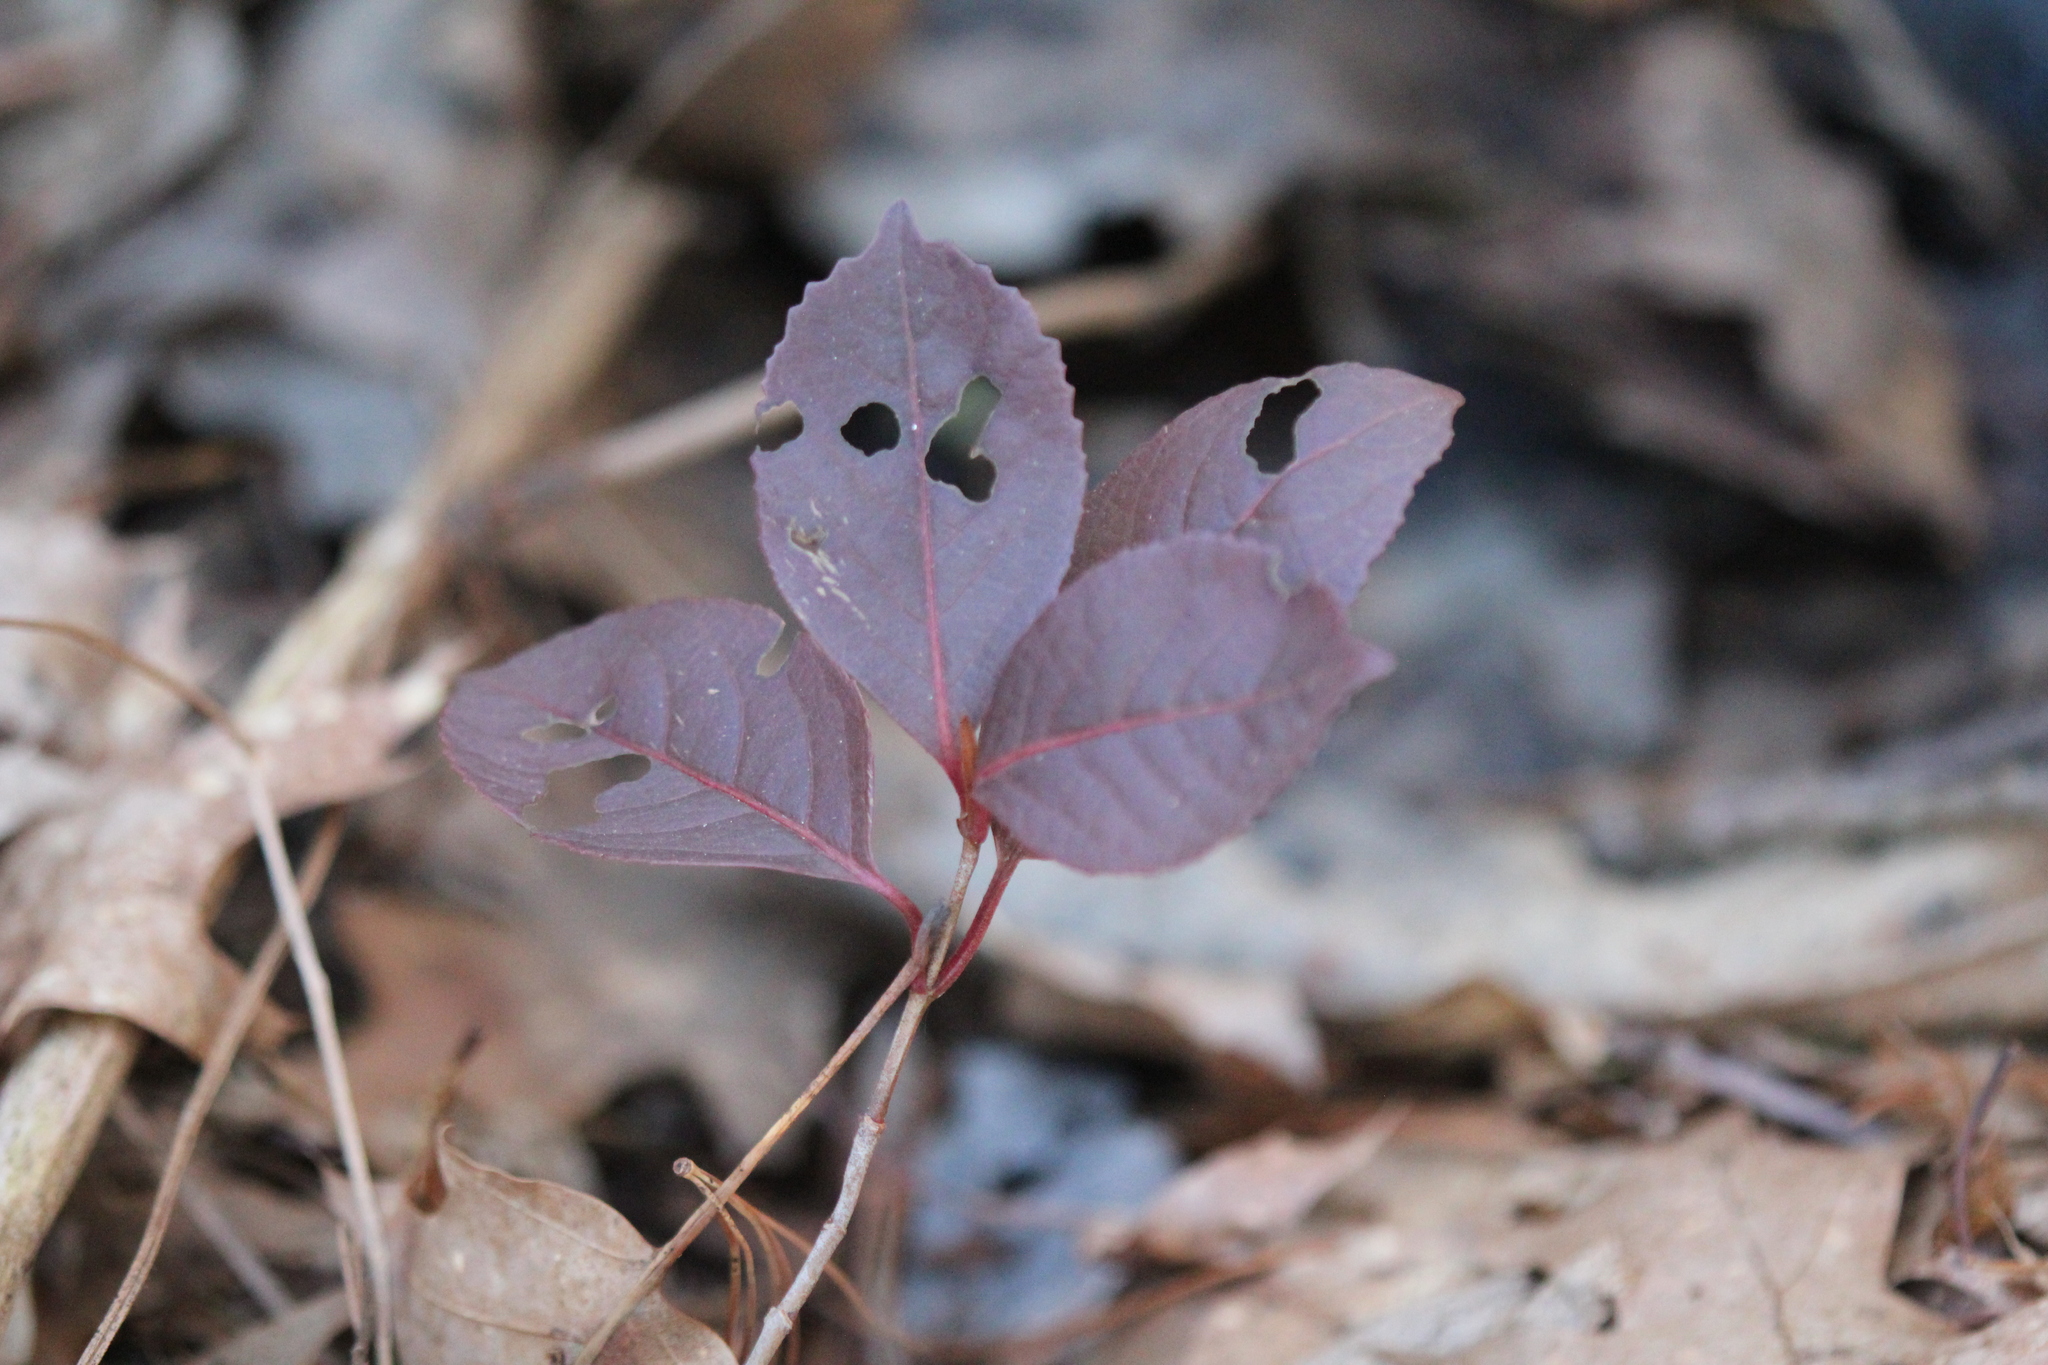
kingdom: Plantae
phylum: Tracheophyta
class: Magnoliopsida
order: Dipsacales
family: Viburnaceae
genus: Viburnum
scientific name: Viburnum cassinoides
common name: Swamp haw
